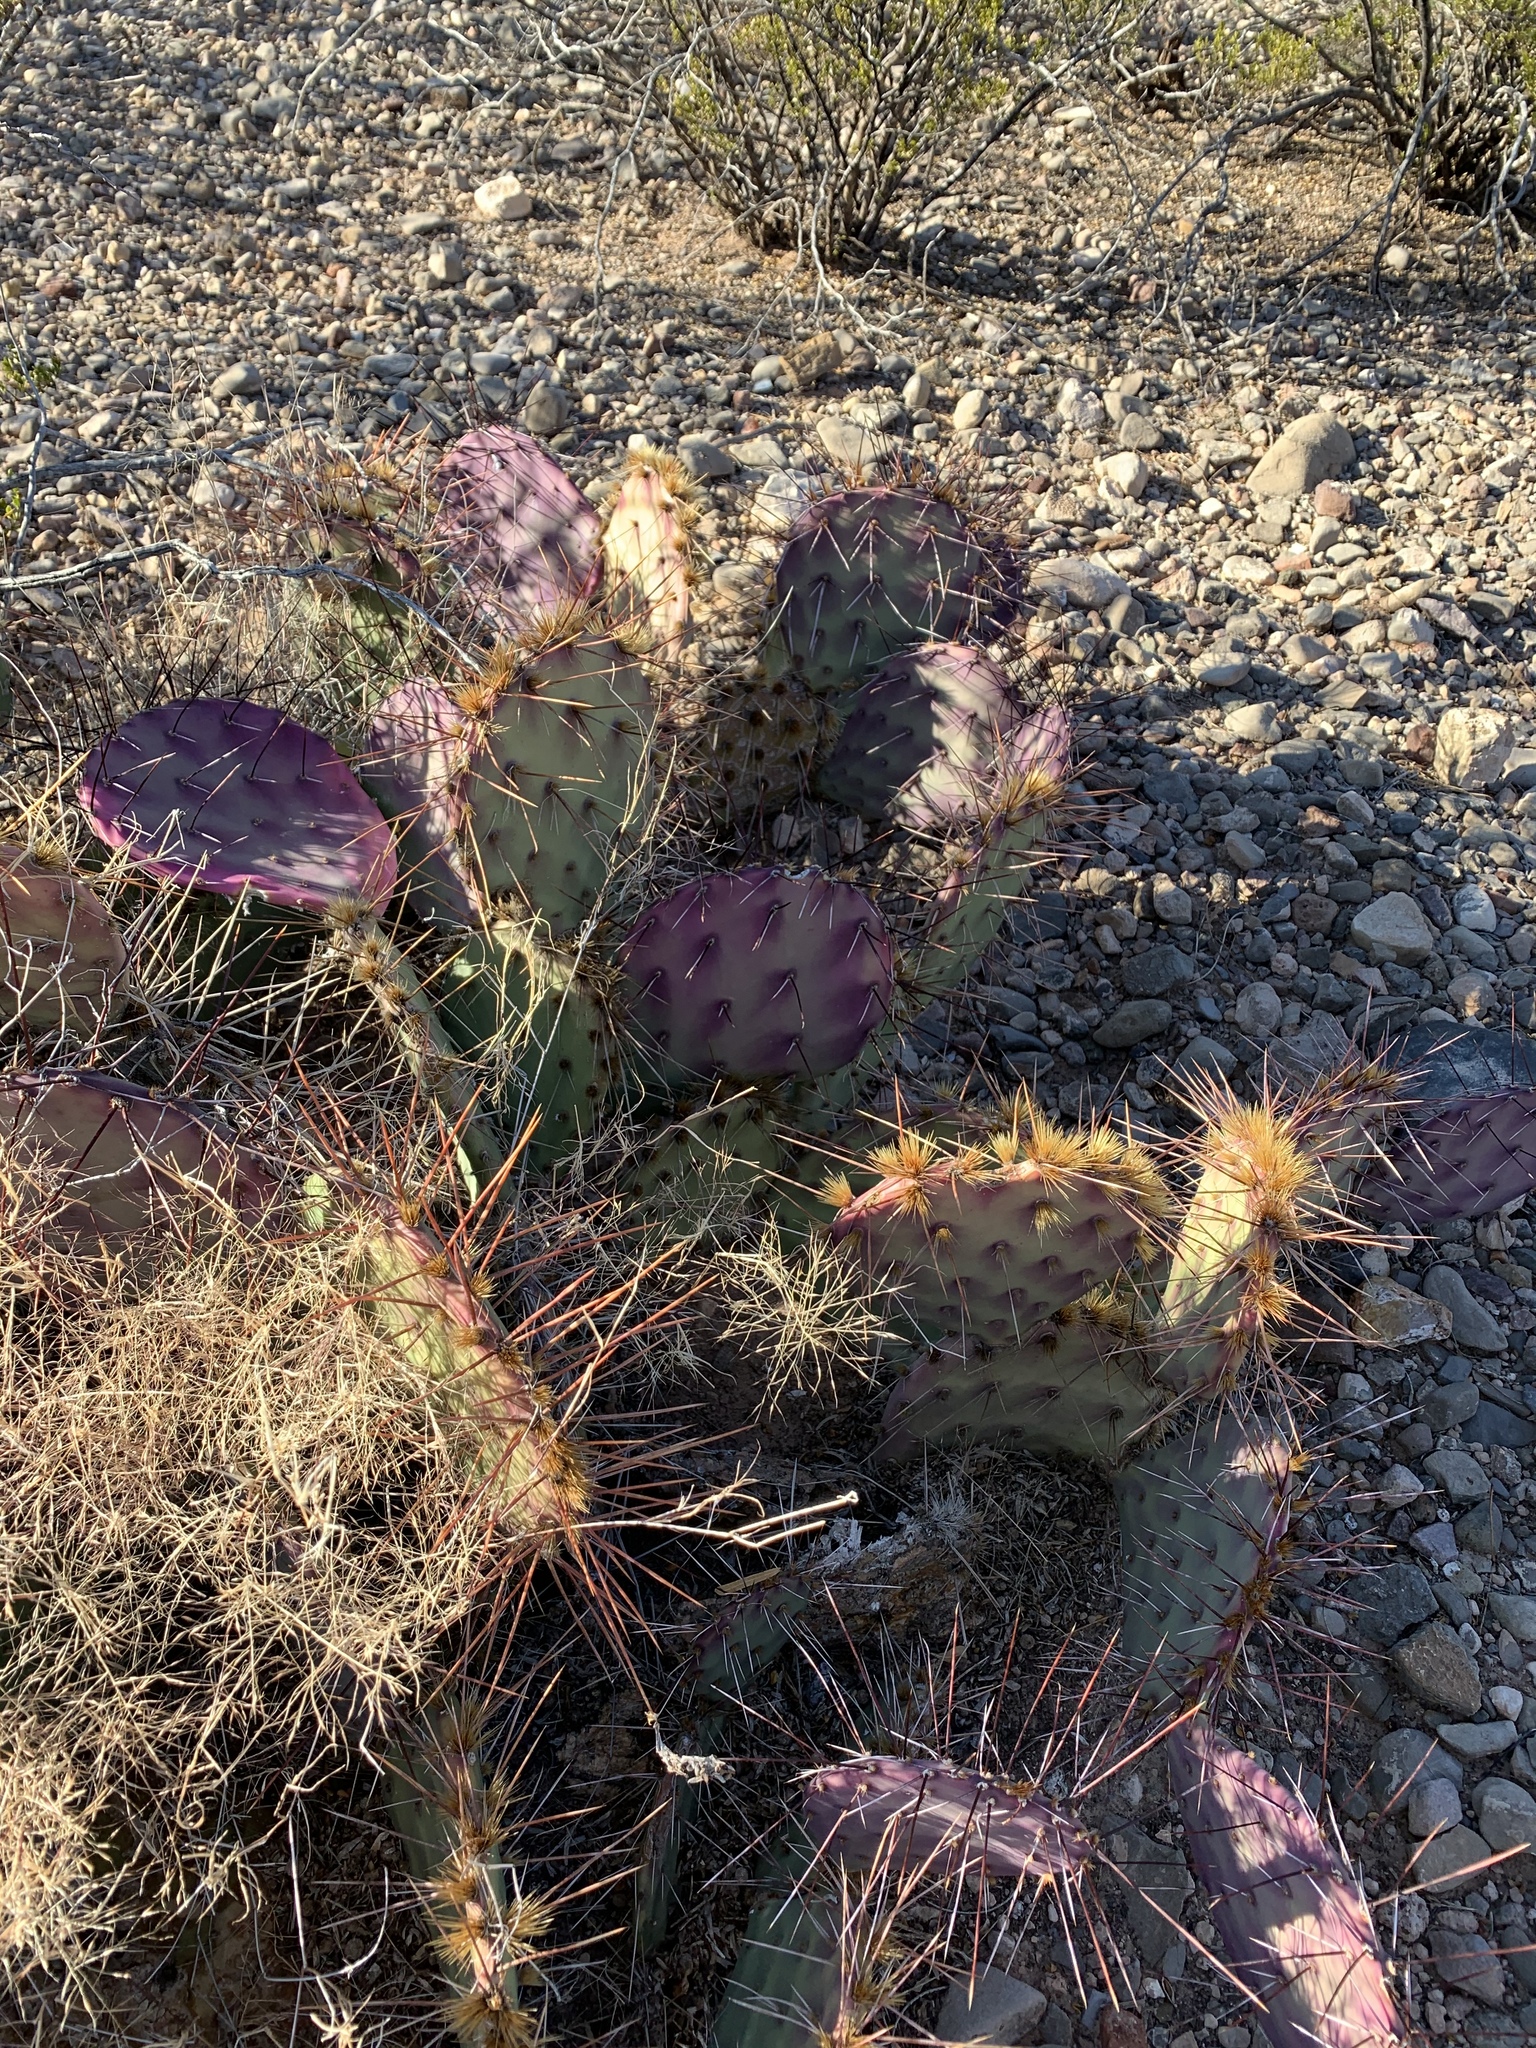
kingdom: Plantae
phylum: Tracheophyta
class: Magnoliopsida
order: Caryophyllales
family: Cactaceae
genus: Opuntia
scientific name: Opuntia macrocentra
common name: Purple prickly-pear
